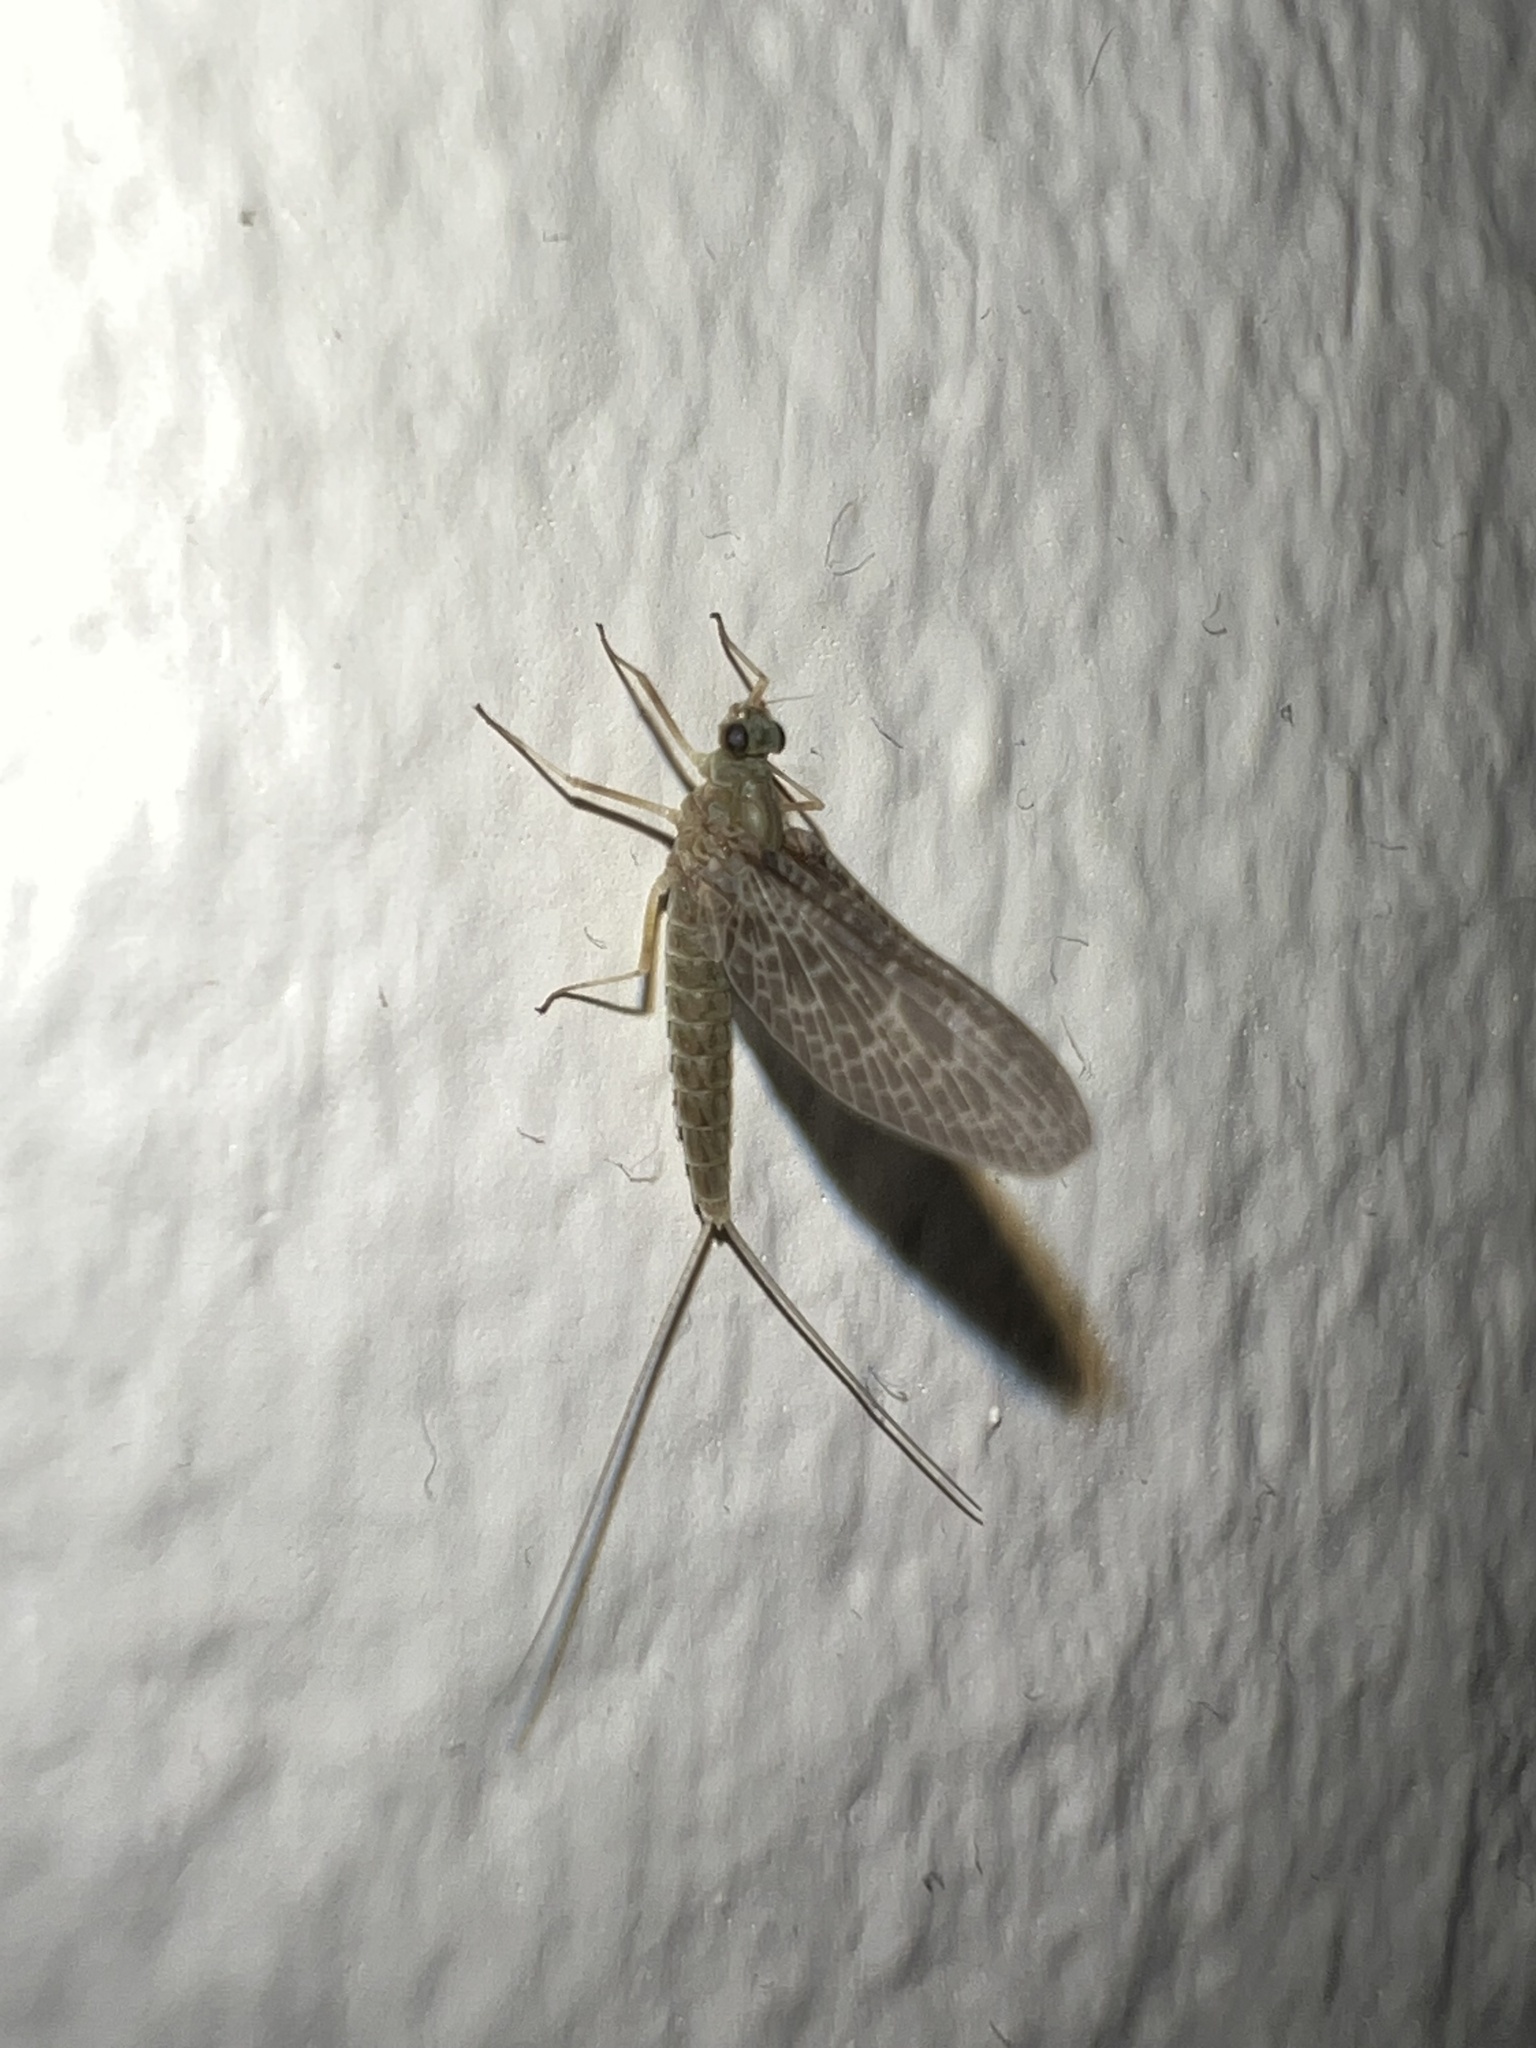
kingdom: Animalia
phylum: Arthropoda
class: Insecta
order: Ephemeroptera
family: Baetidae
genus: Callibaetis
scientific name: Callibaetis ferrugineus
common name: Red speckled dun
